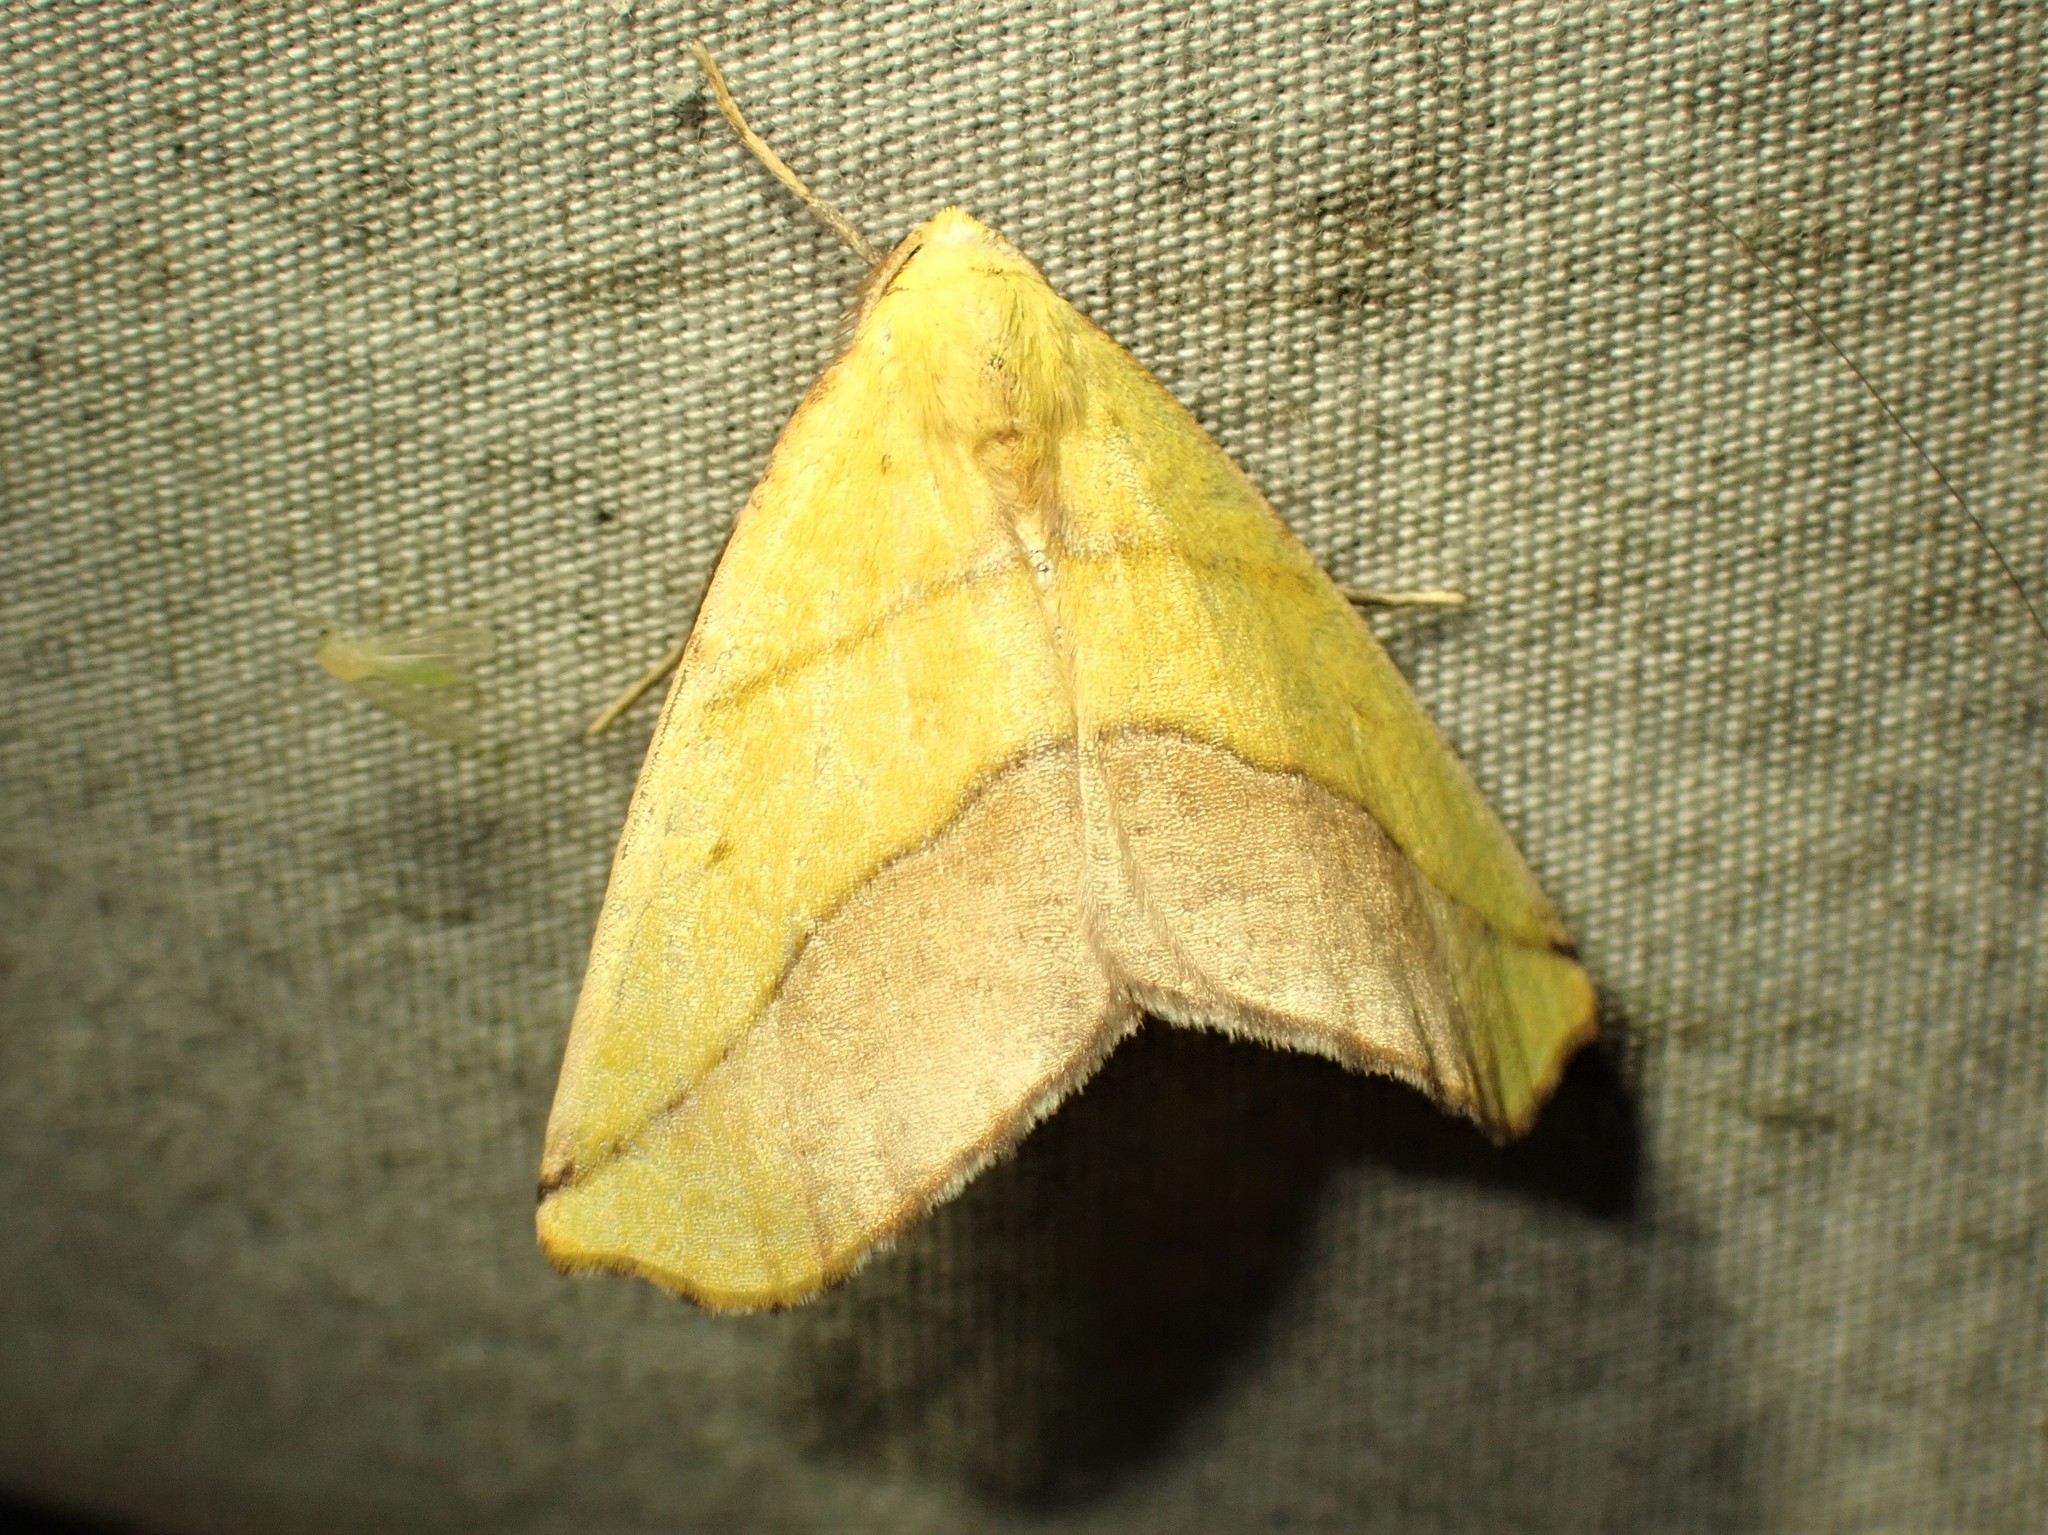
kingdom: Animalia
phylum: Arthropoda
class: Insecta
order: Lepidoptera
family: Geometridae
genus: Sicya
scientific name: Sicya macularia
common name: Sharp-lined yellow
